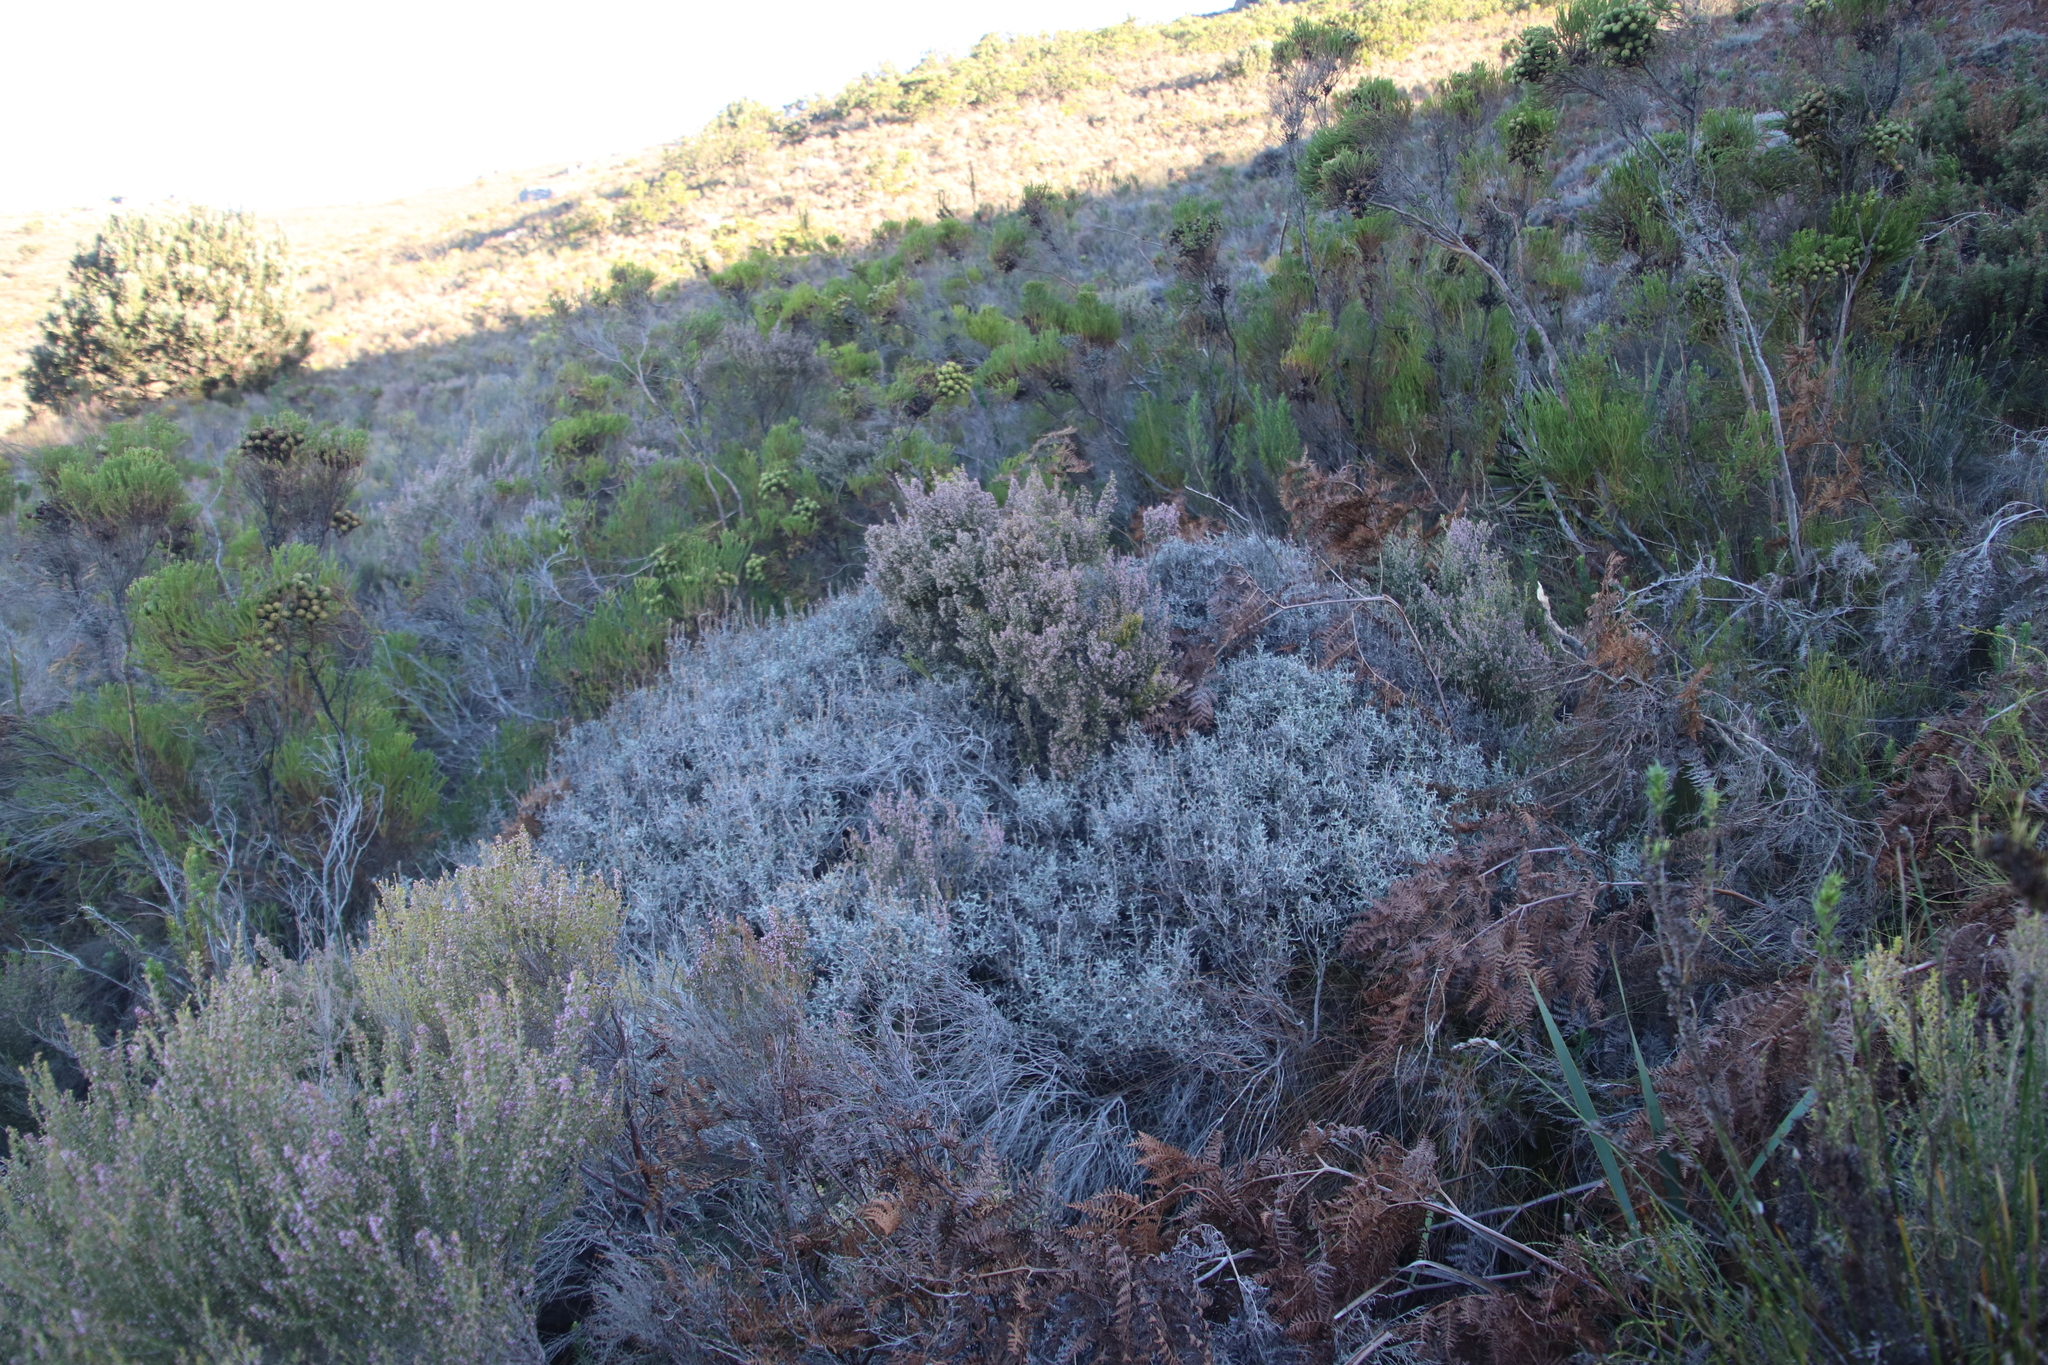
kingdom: Plantae
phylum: Tracheophyta
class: Magnoliopsida
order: Asterales
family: Asteraceae
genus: Seriphium
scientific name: Seriphium plumosum
